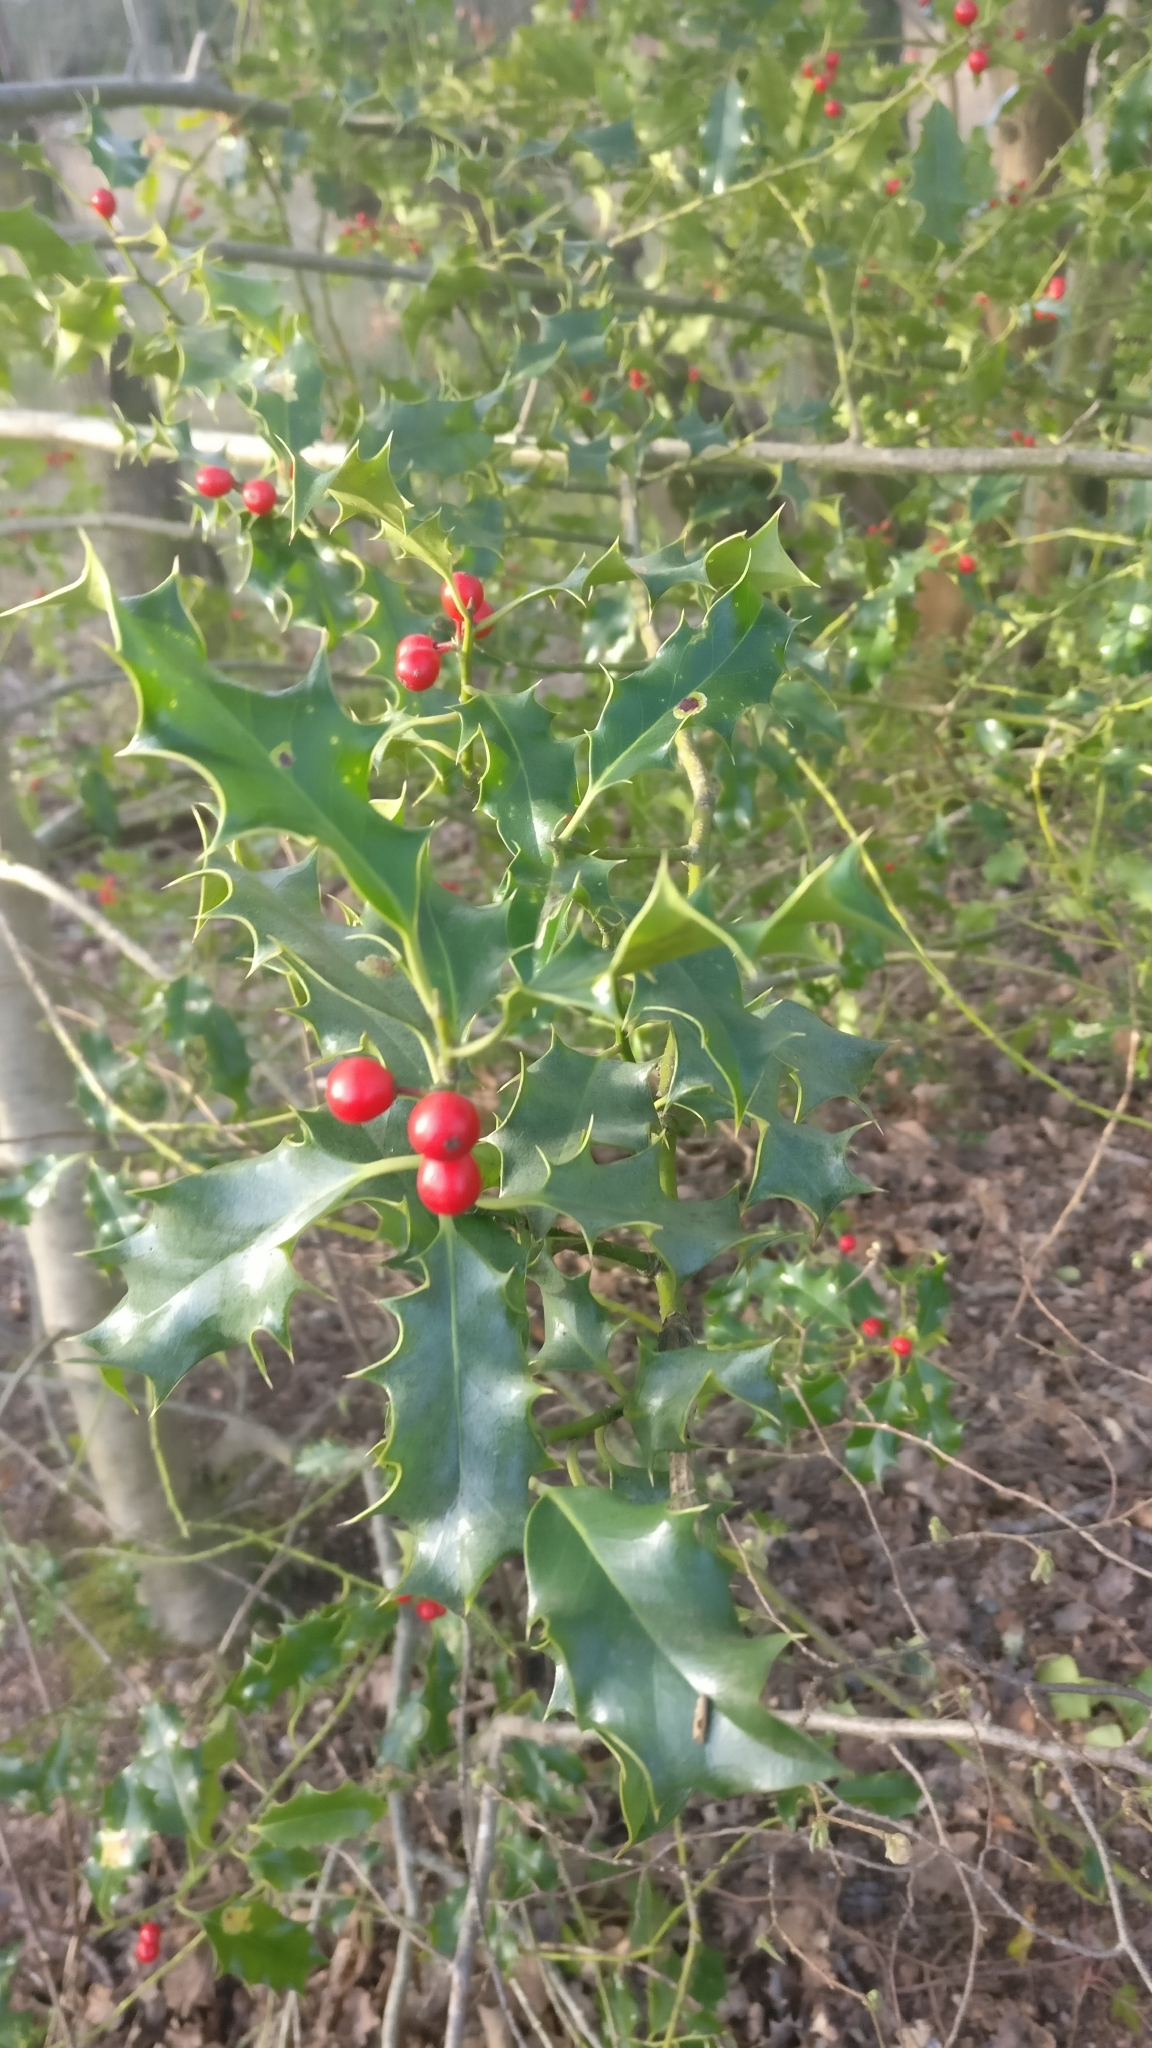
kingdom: Plantae
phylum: Tracheophyta
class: Magnoliopsida
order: Aquifoliales
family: Aquifoliaceae
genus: Ilex
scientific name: Ilex aquifolium
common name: English holly
